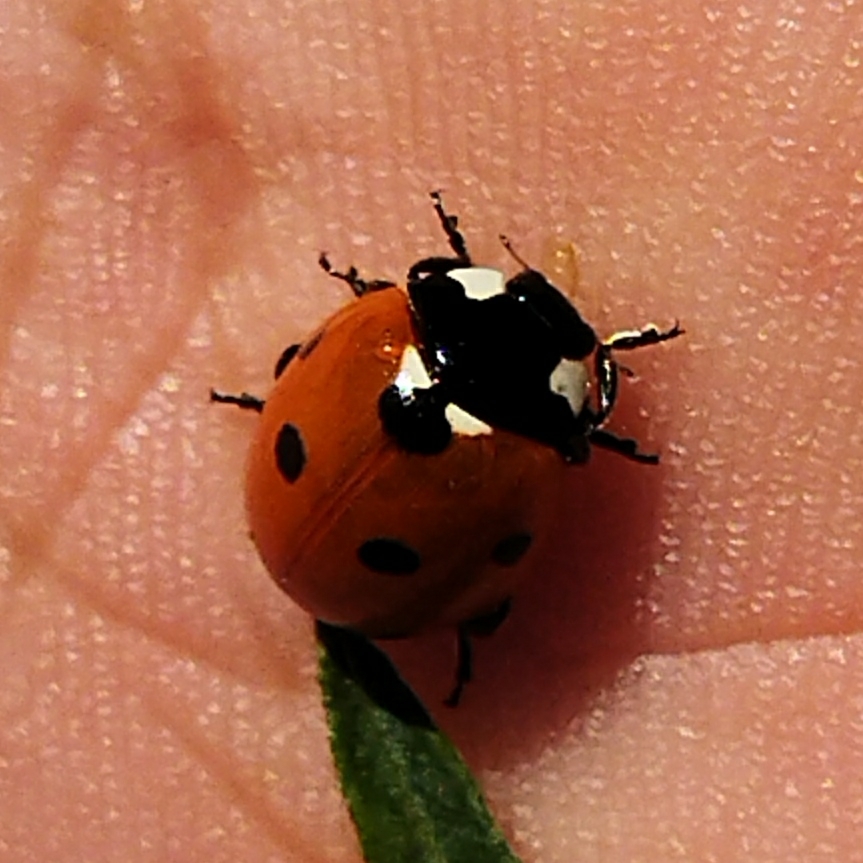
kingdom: Animalia
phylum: Arthropoda
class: Insecta
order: Coleoptera
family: Coccinellidae
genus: Coccinella
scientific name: Coccinella septempunctata
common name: Sevenspotted lady beetle
